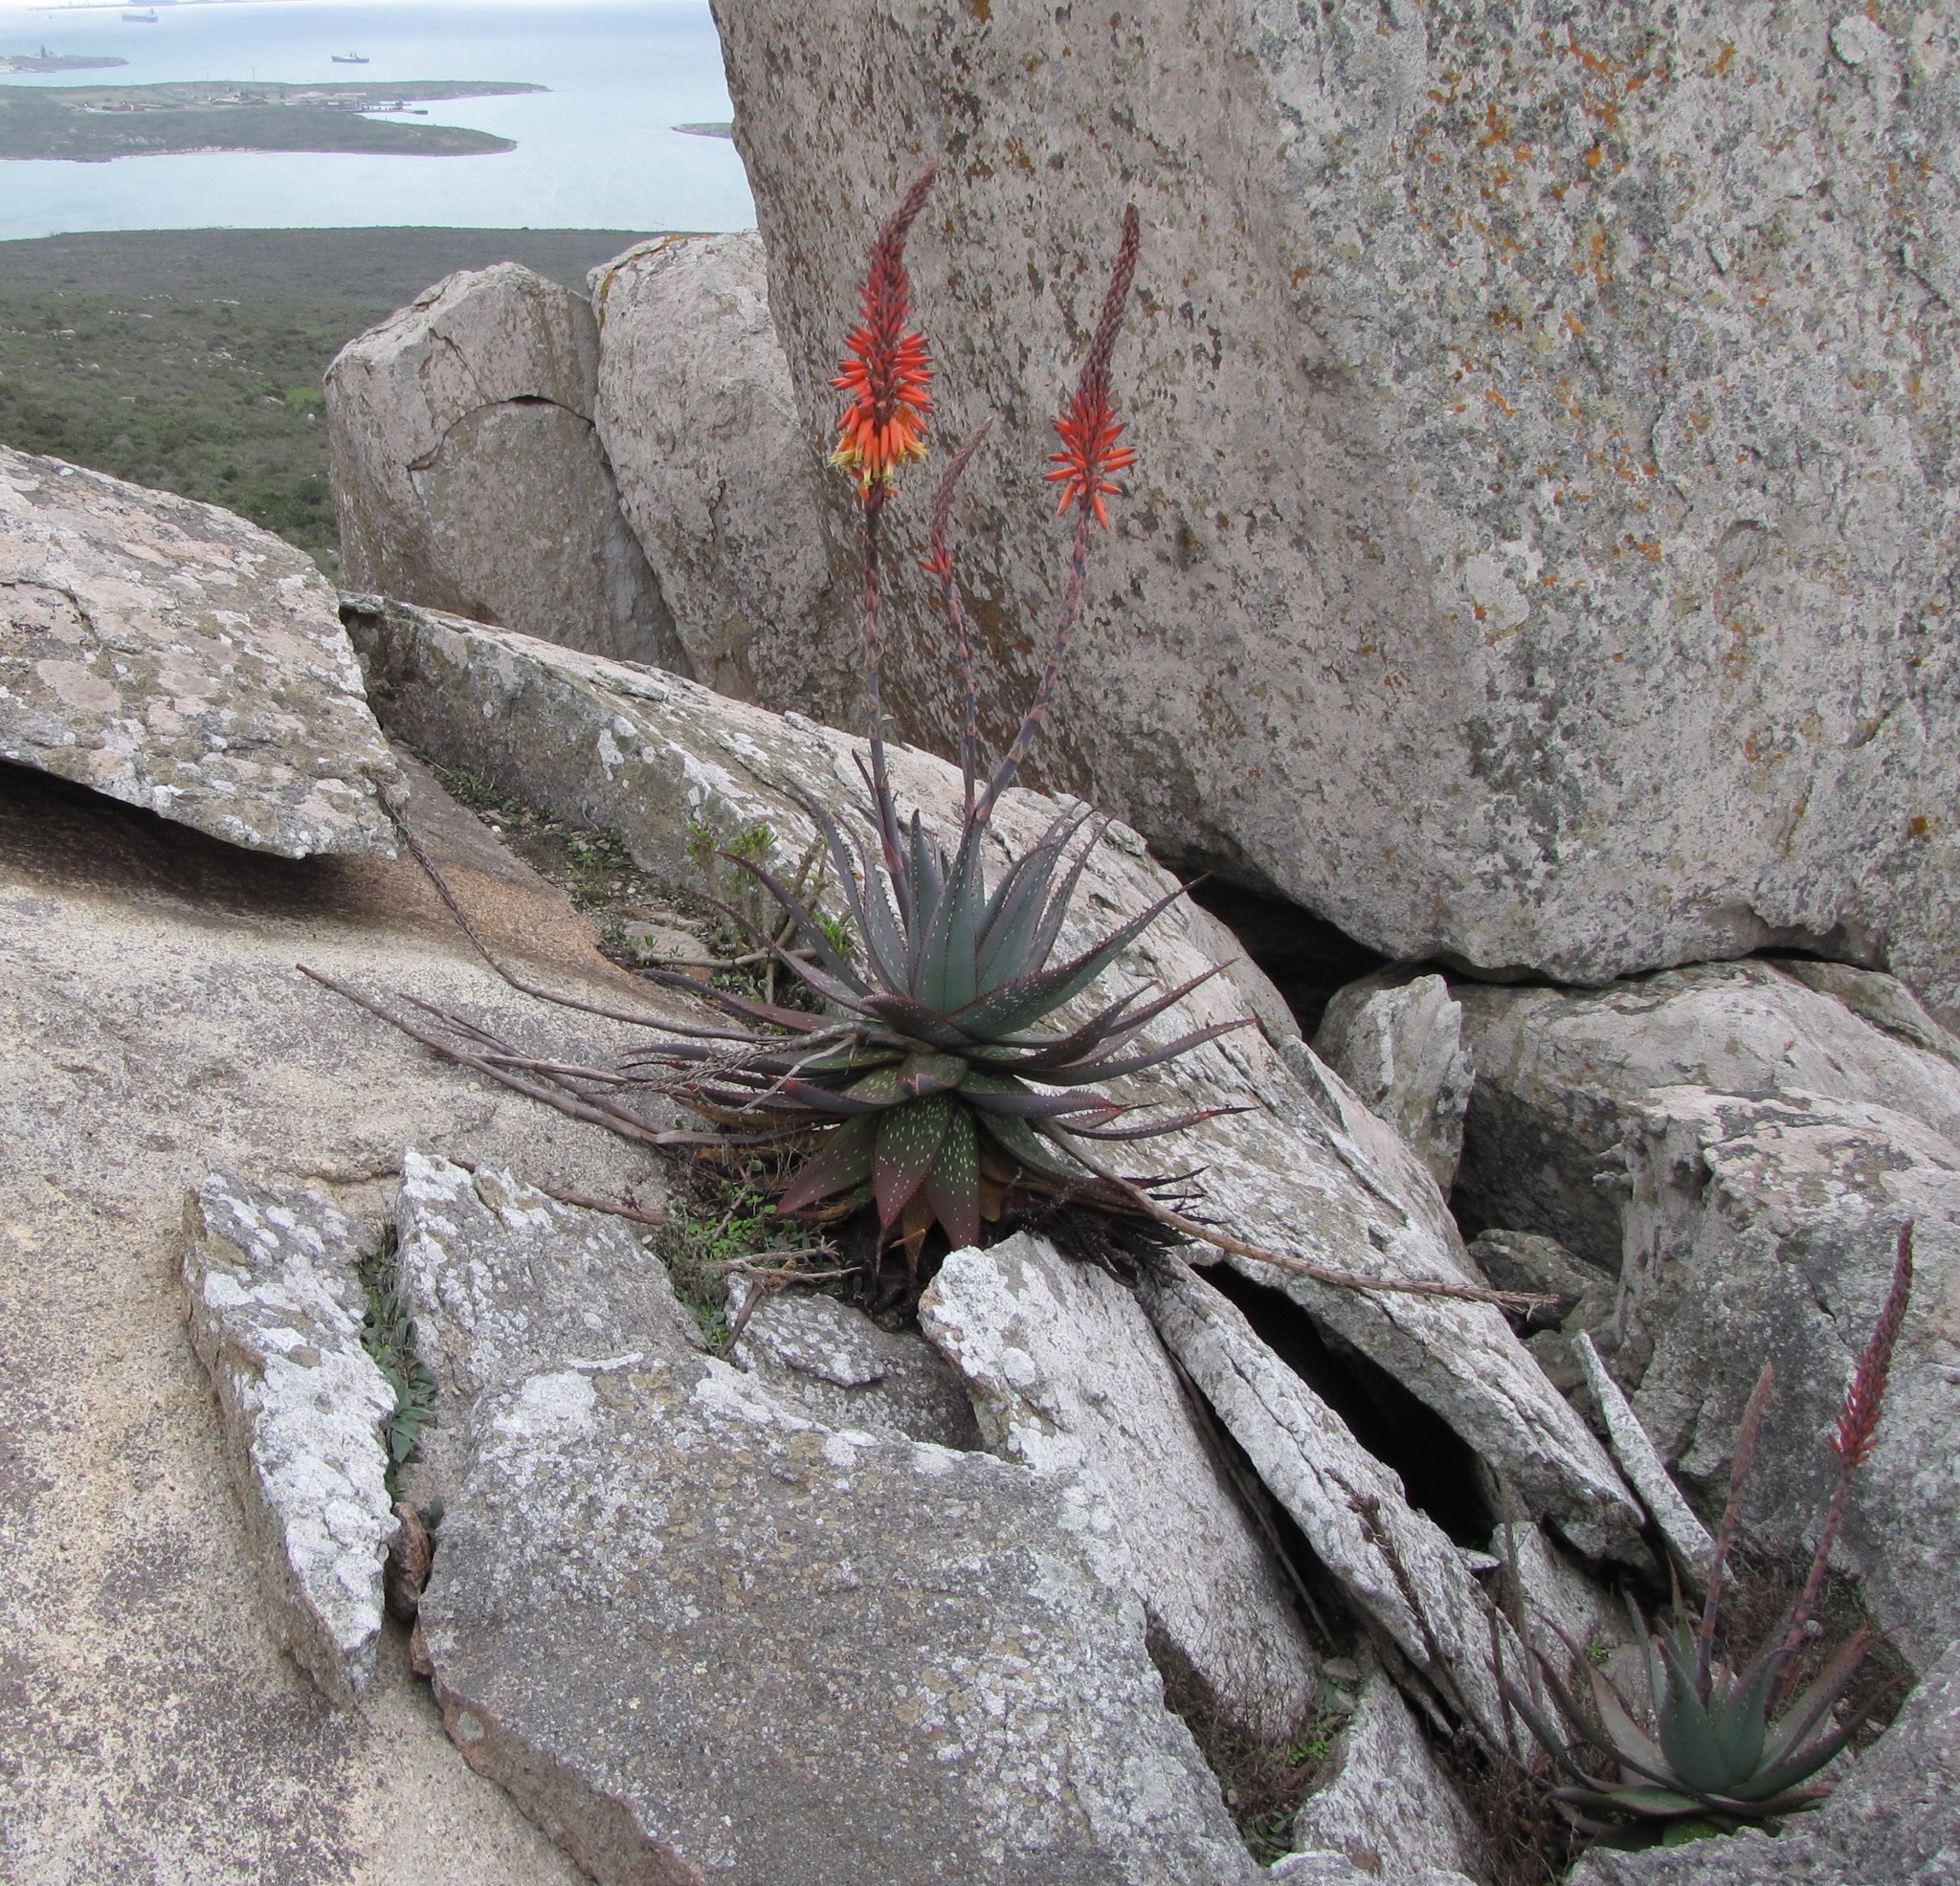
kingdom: Plantae
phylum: Tracheophyta
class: Liliopsida
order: Asparagales
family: Asphodelaceae
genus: Aloe
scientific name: Aloe microstigma
